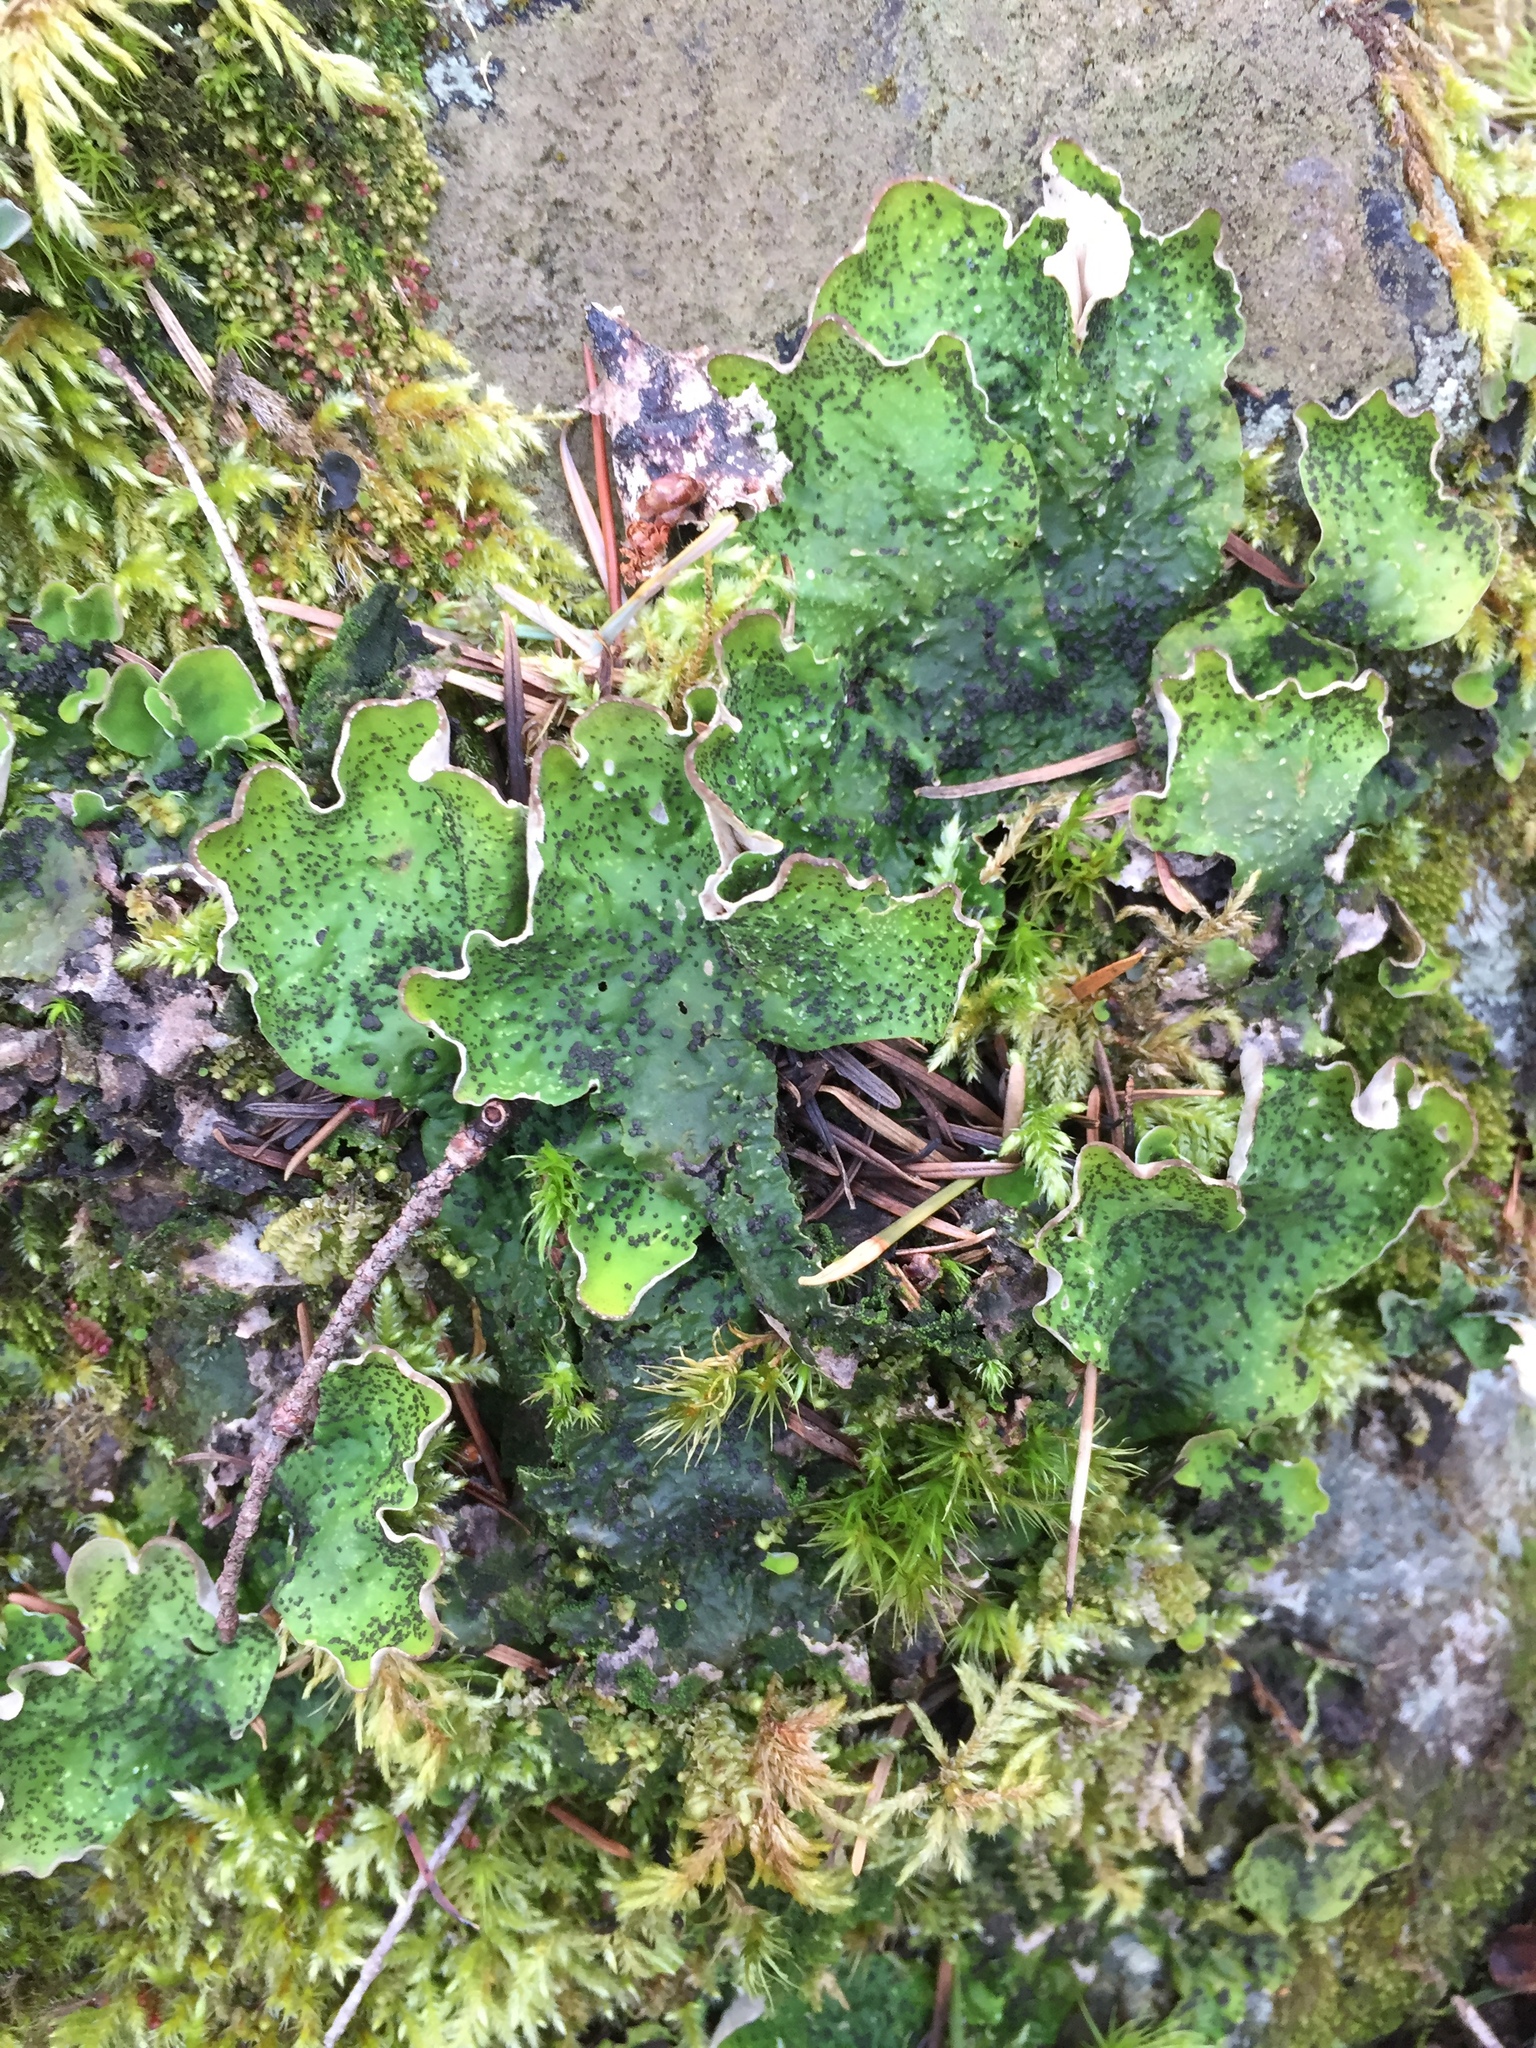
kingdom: Fungi
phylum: Ascomycota
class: Lecanoromycetes
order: Peltigerales
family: Peltigeraceae
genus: Peltigera
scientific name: Peltigera britannica
